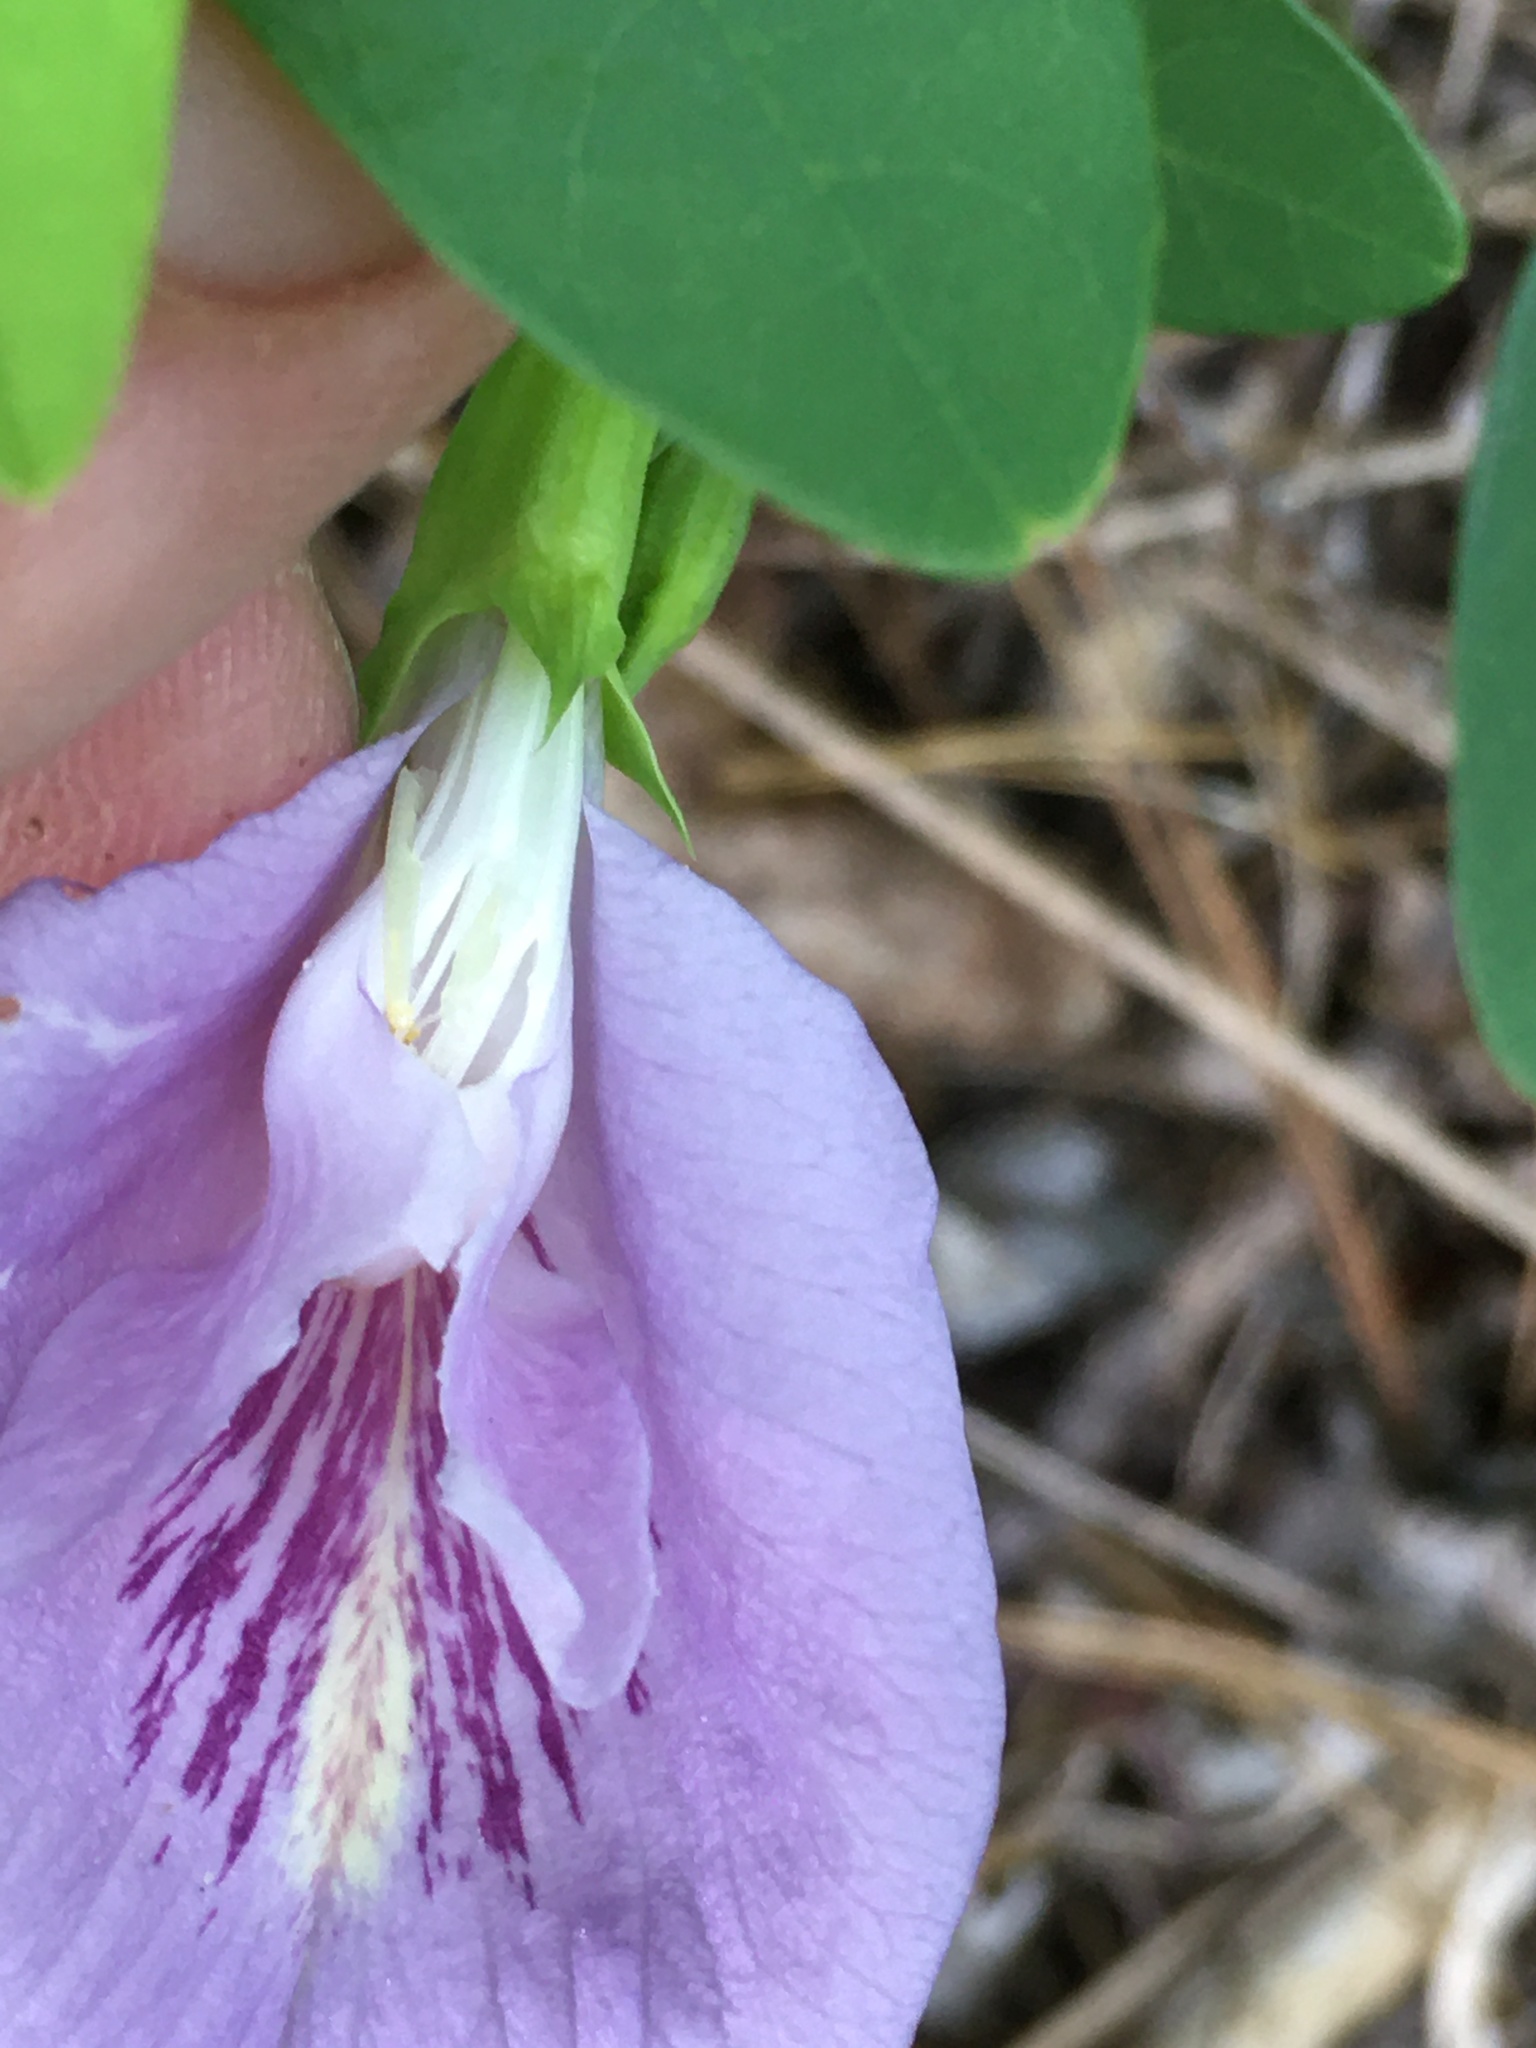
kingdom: Plantae
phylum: Tracheophyta
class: Magnoliopsida
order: Fabales
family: Fabaceae
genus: Clitoria
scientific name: Clitoria mariana
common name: Butterfly-pea
